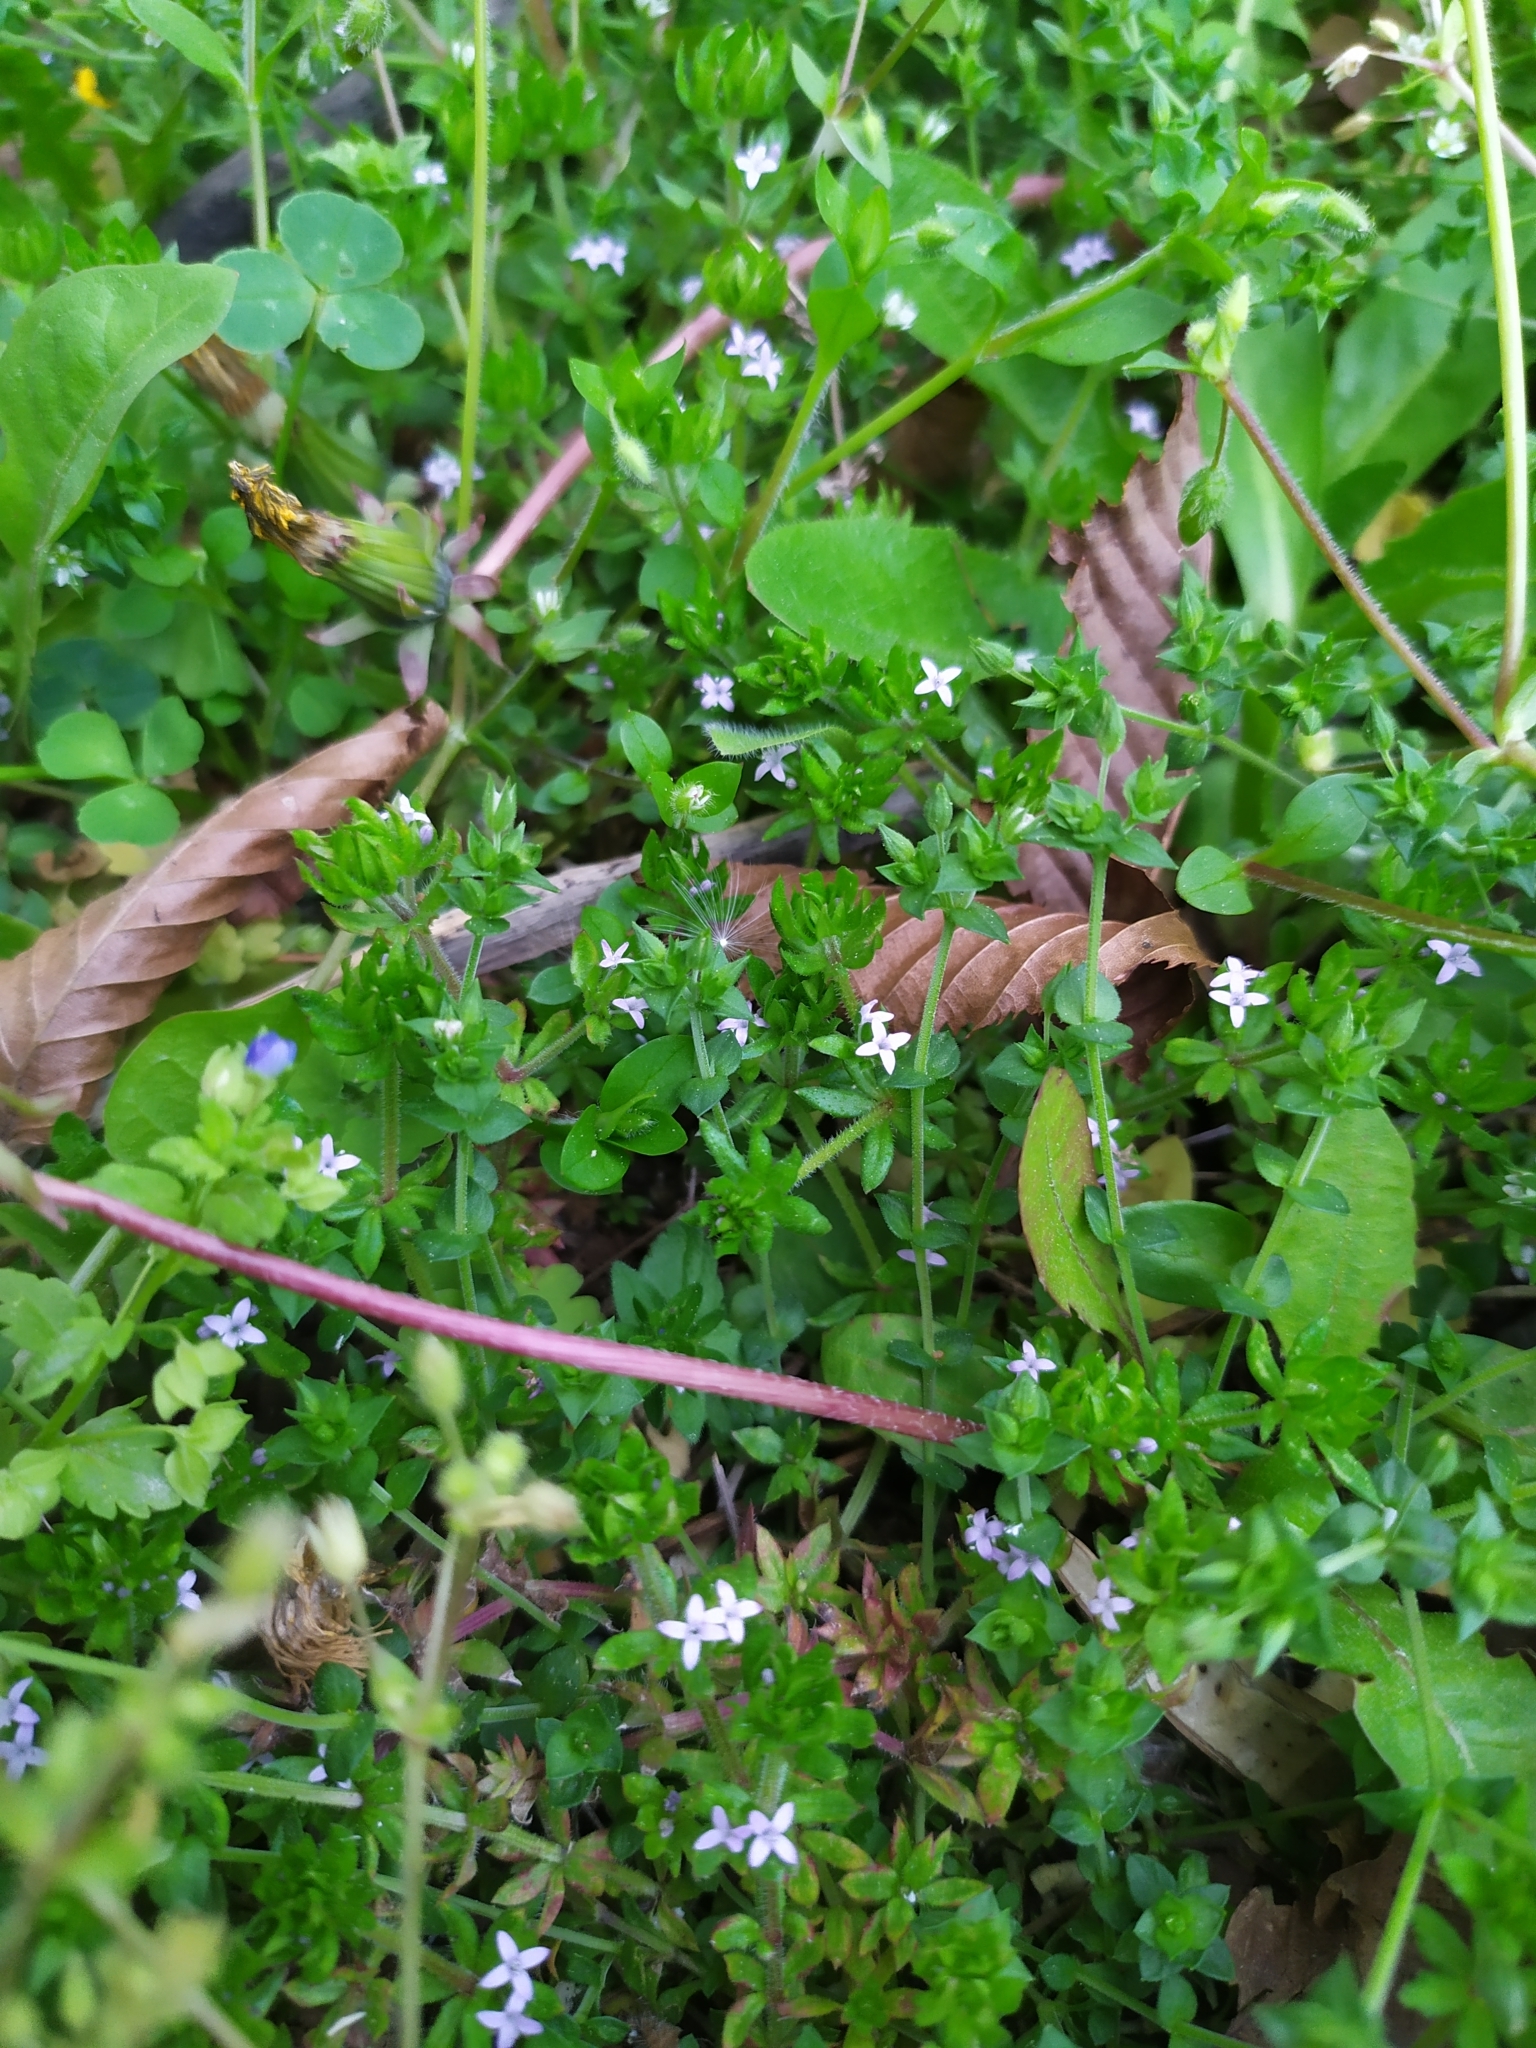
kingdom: Plantae
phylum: Tracheophyta
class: Magnoliopsida
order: Gentianales
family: Rubiaceae
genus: Sherardia
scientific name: Sherardia arvensis
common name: Field madder
